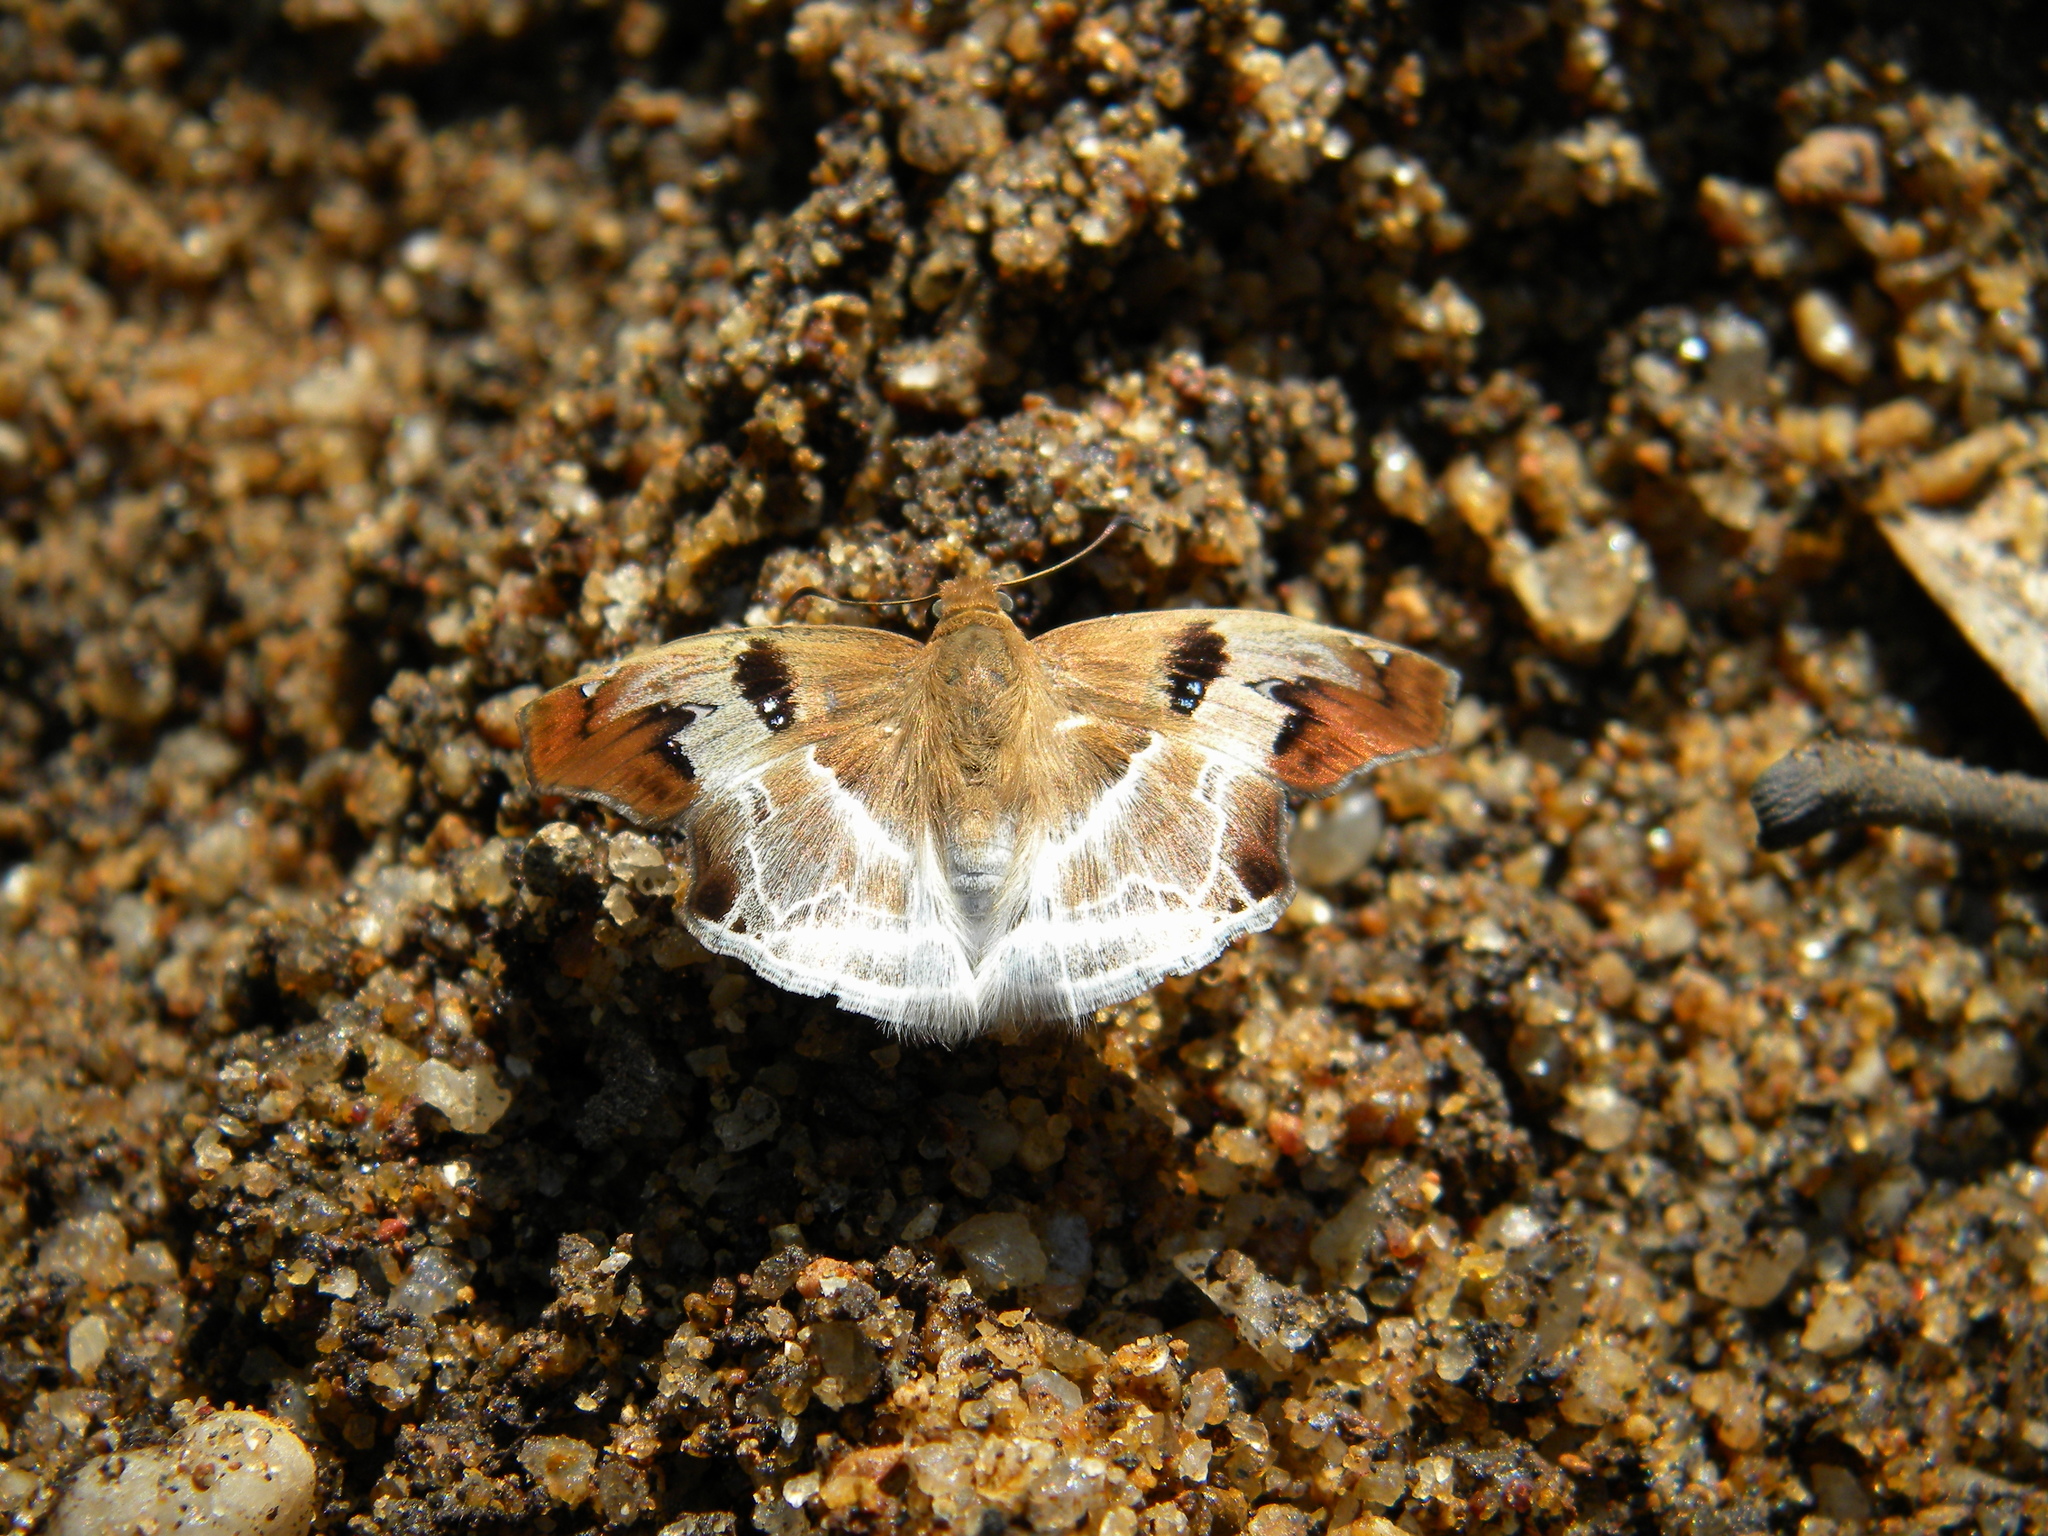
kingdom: Animalia
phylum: Arthropoda
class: Insecta
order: Lepidoptera
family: Hesperiidae
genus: Odontoptilum
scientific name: Odontoptilum angulata
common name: Chestnut banded angle
